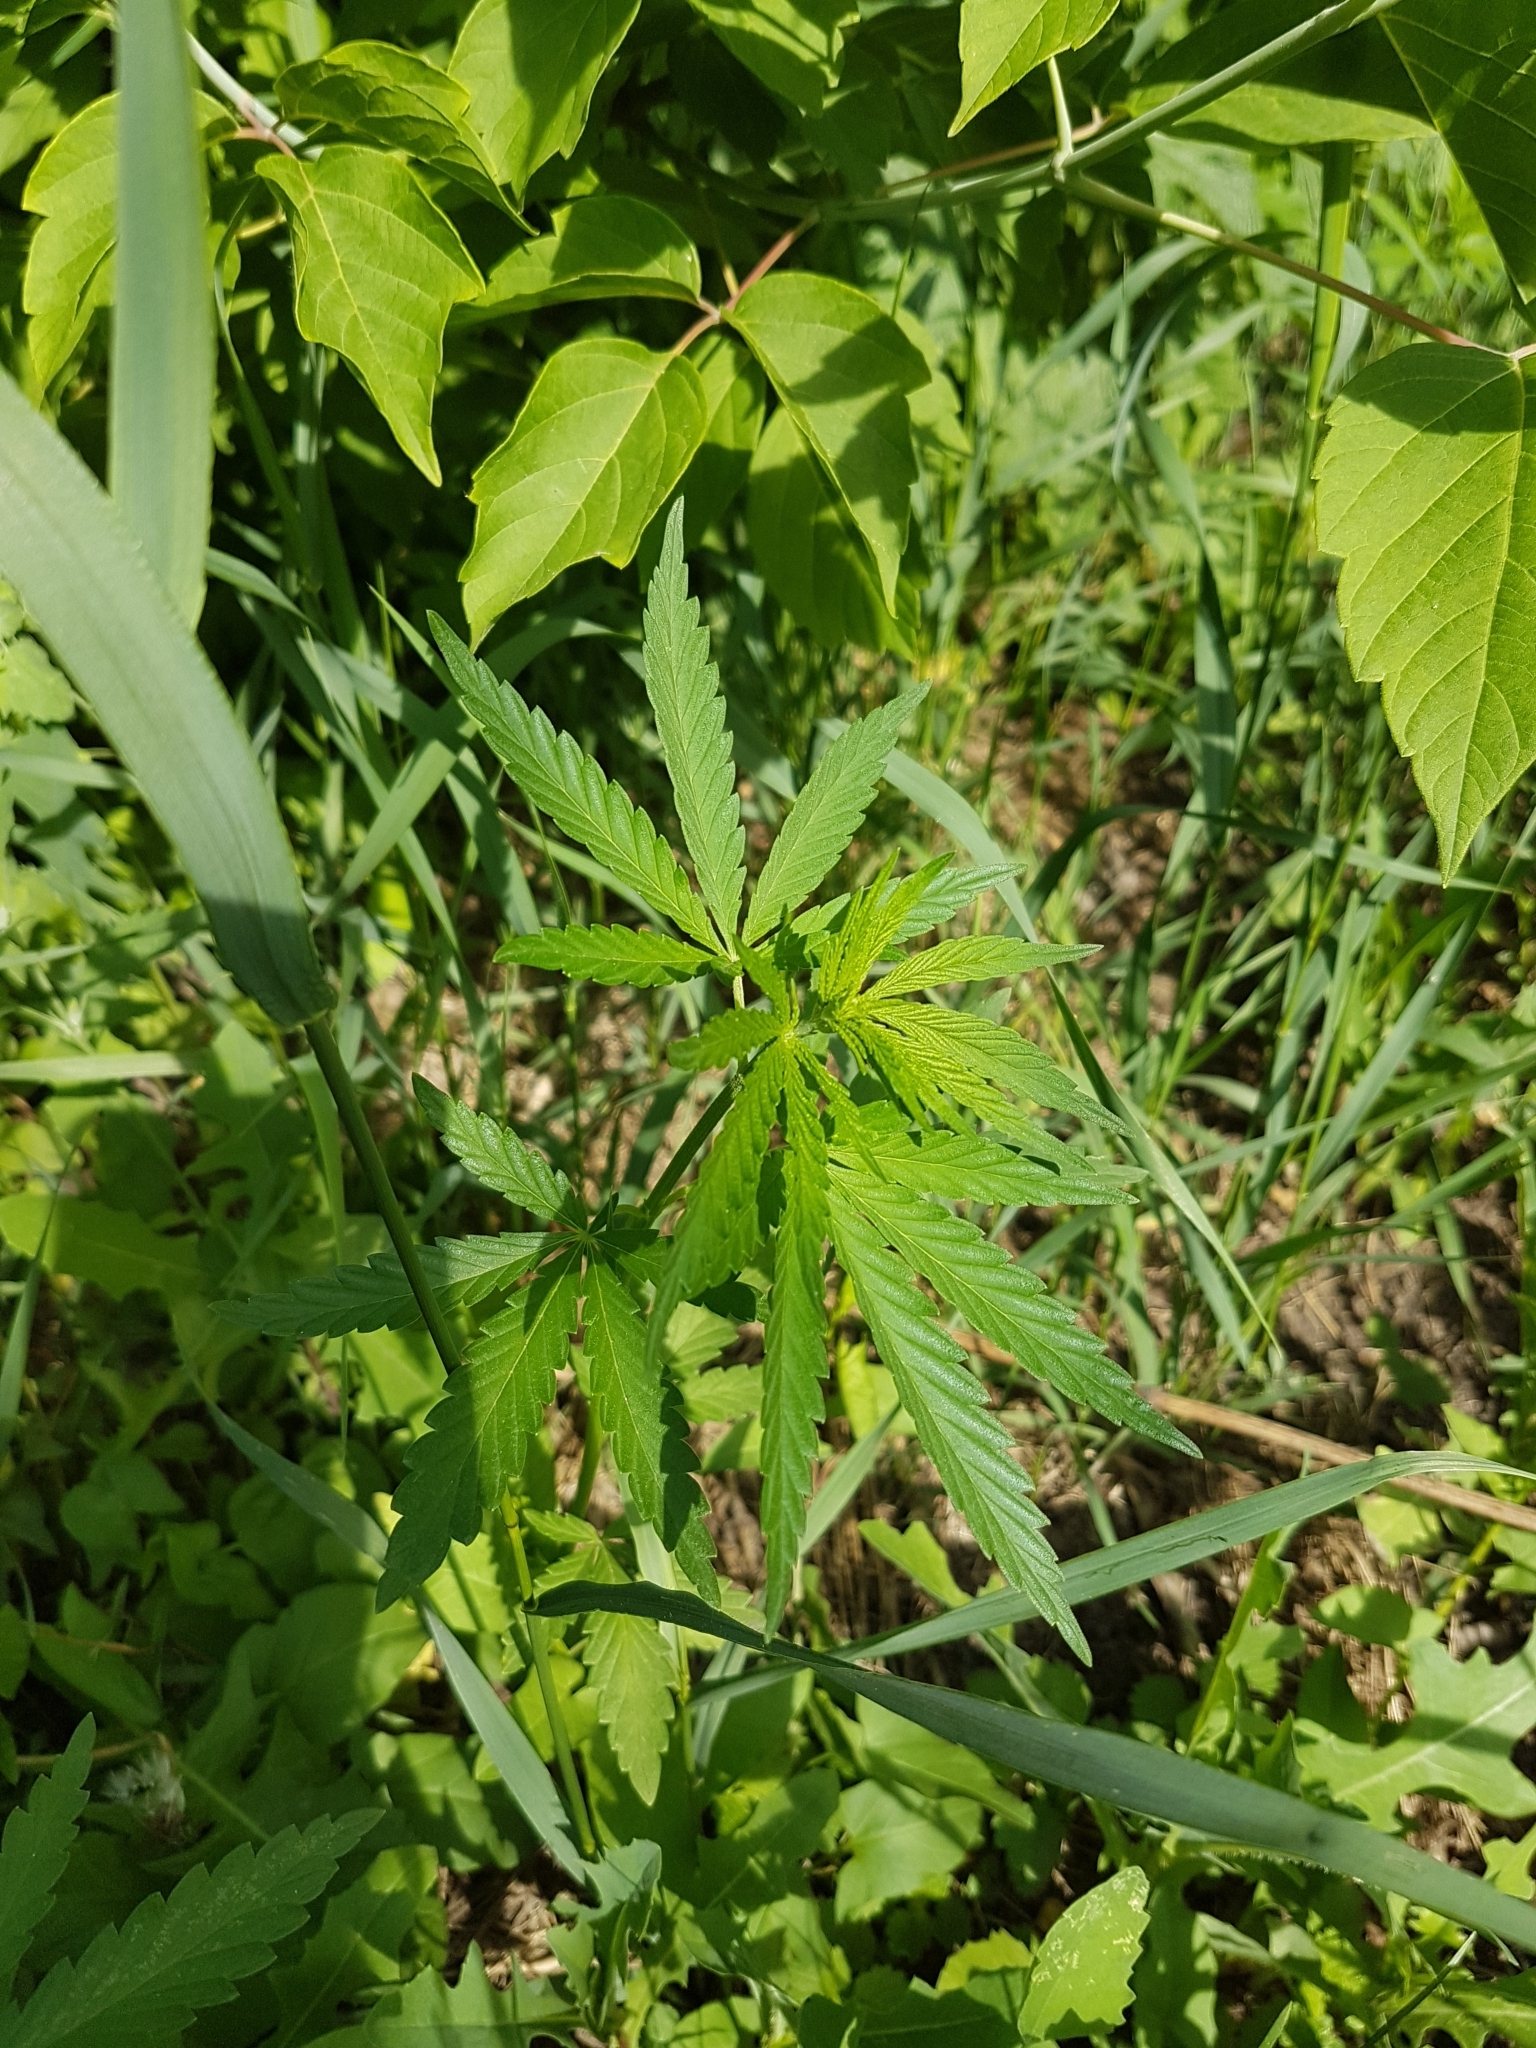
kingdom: Plantae
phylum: Tracheophyta
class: Magnoliopsida
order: Rosales
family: Cannabaceae
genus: Cannabis
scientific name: Cannabis sativa
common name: Hemp
